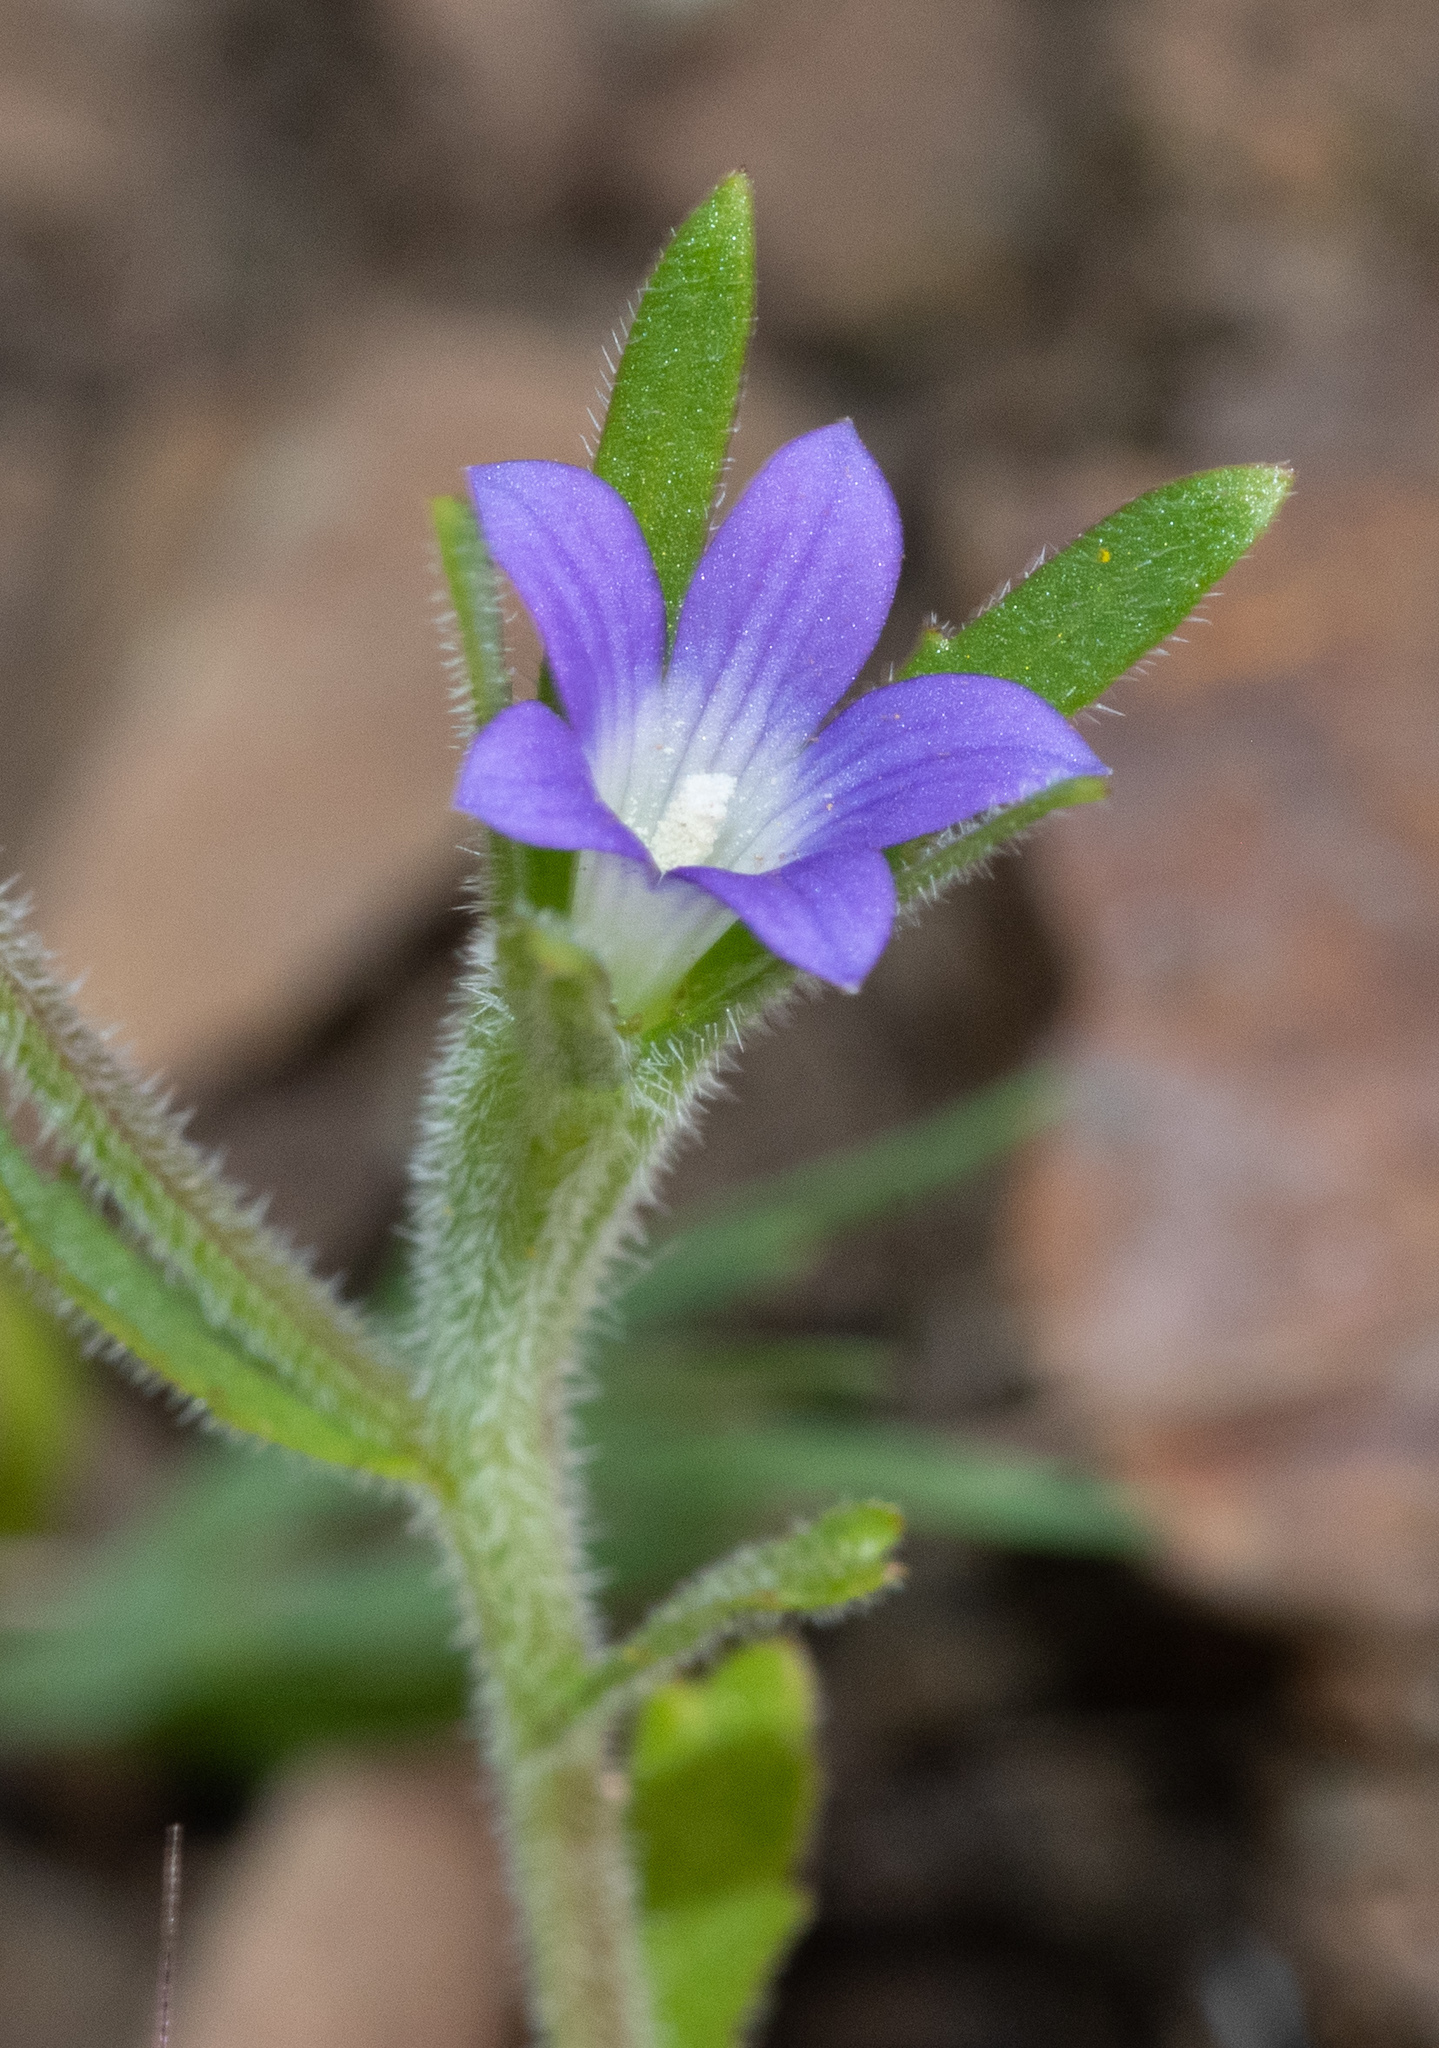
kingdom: Plantae
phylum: Tracheophyta
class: Magnoliopsida
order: Asterales
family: Campanulaceae
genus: Githopsis
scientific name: Githopsis specularioides
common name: Common bluecup
